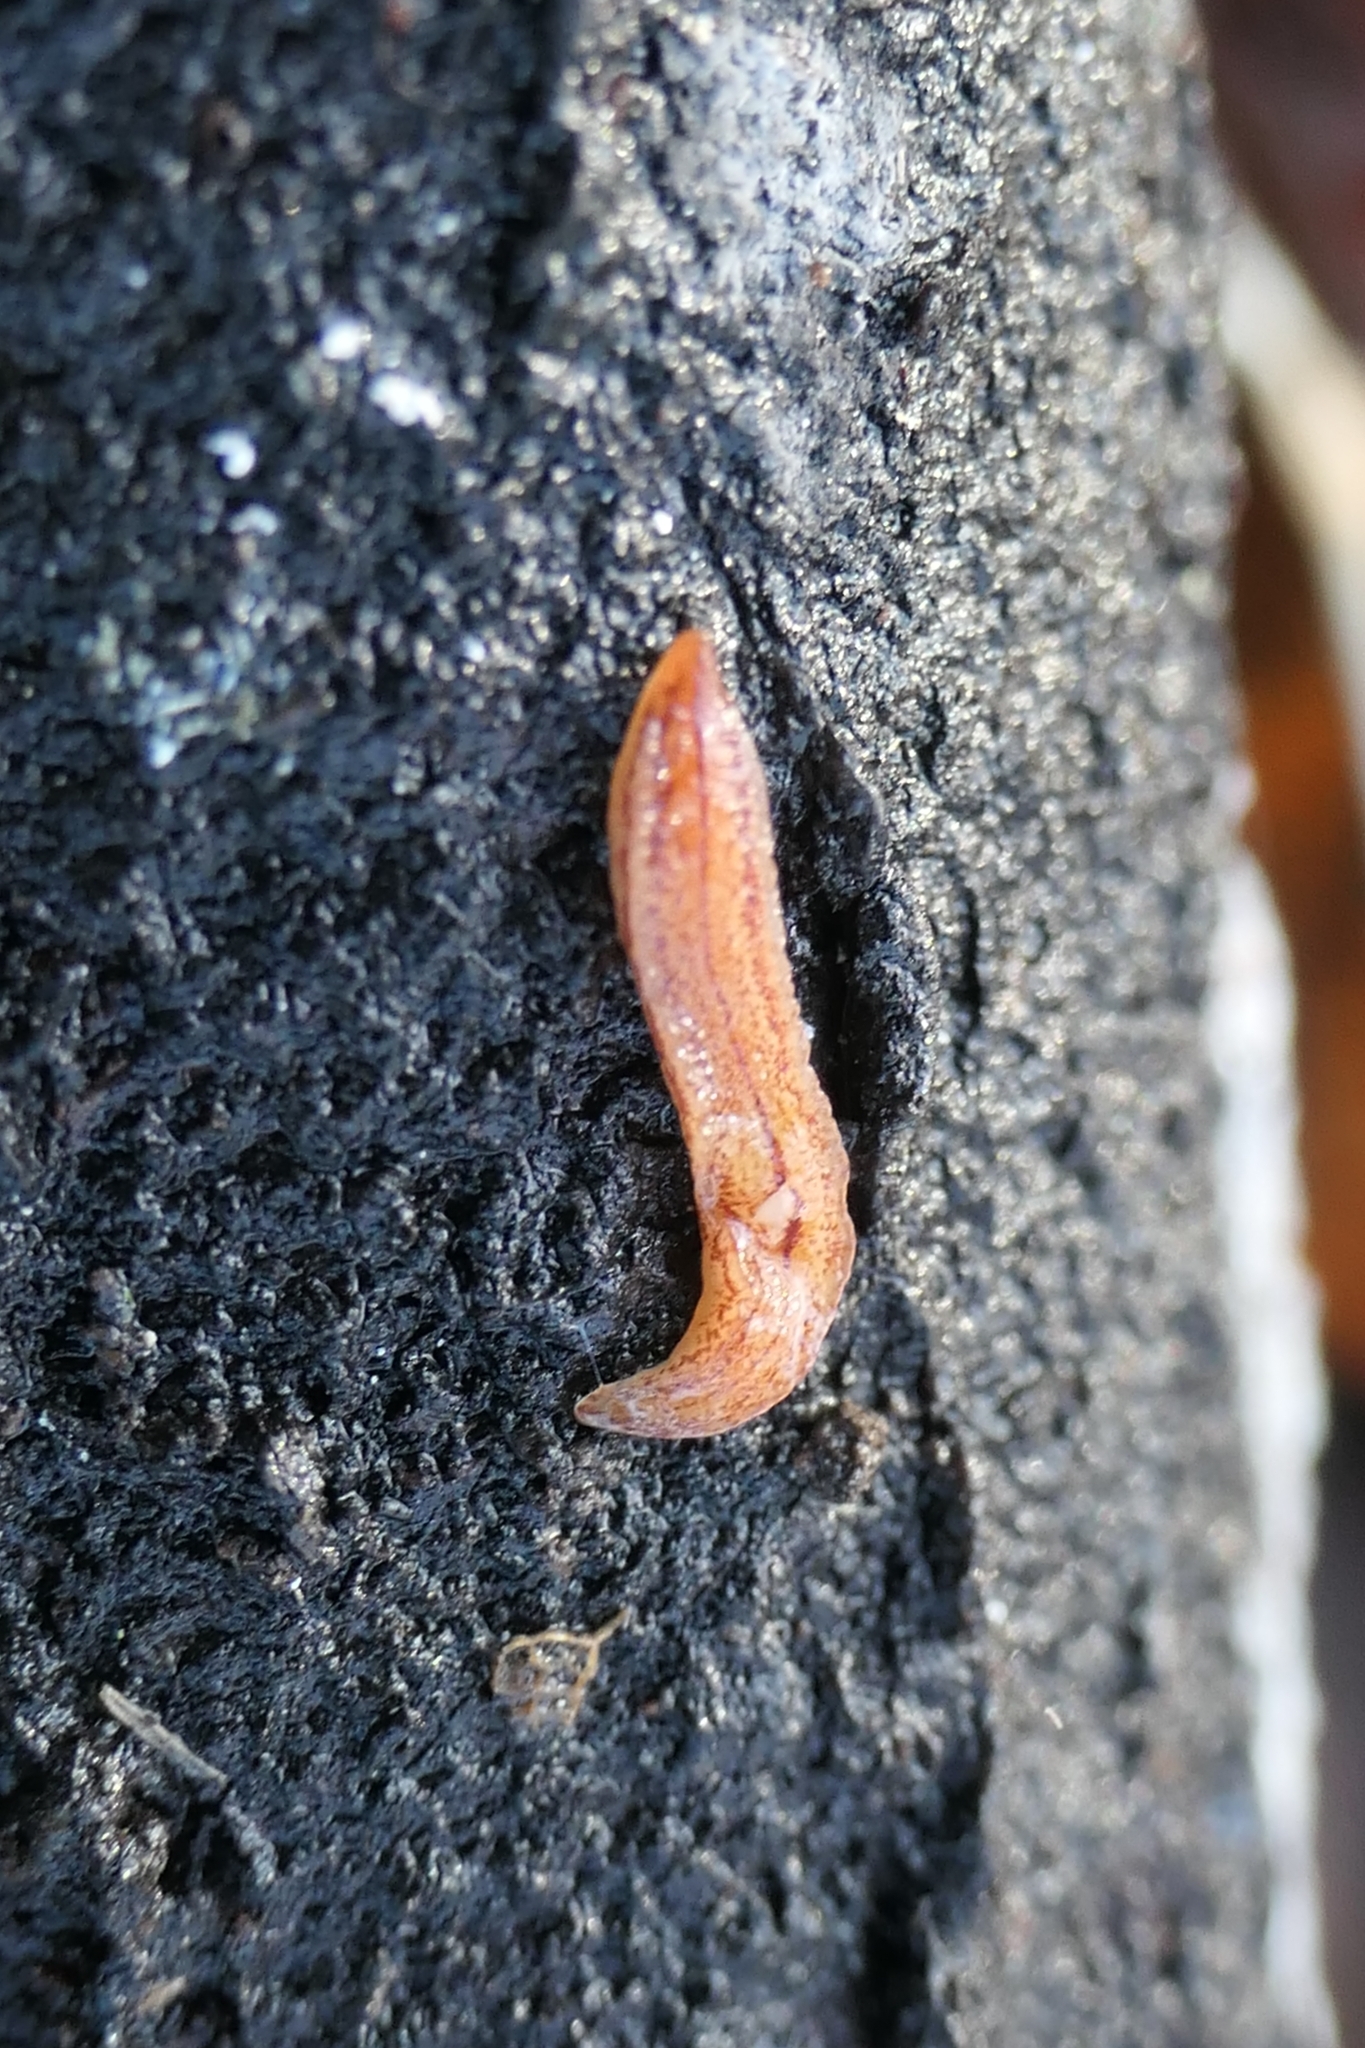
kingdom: Animalia
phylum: Platyhelminthes
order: Tricladida
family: Geoplanidae
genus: Artioposthia
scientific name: Artioposthia
